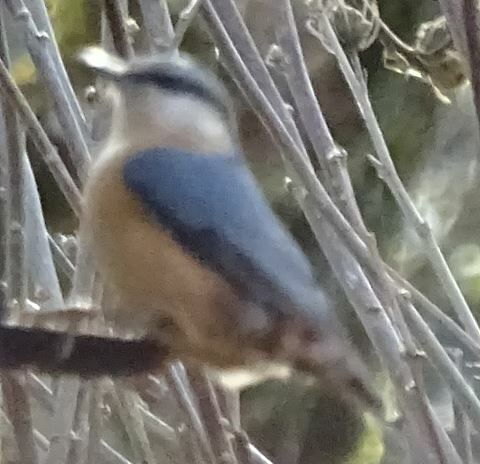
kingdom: Animalia
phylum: Chordata
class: Aves
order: Passeriformes
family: Sittidae
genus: Sitta
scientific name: Sitta europaea
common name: Eurasian nuthatch
